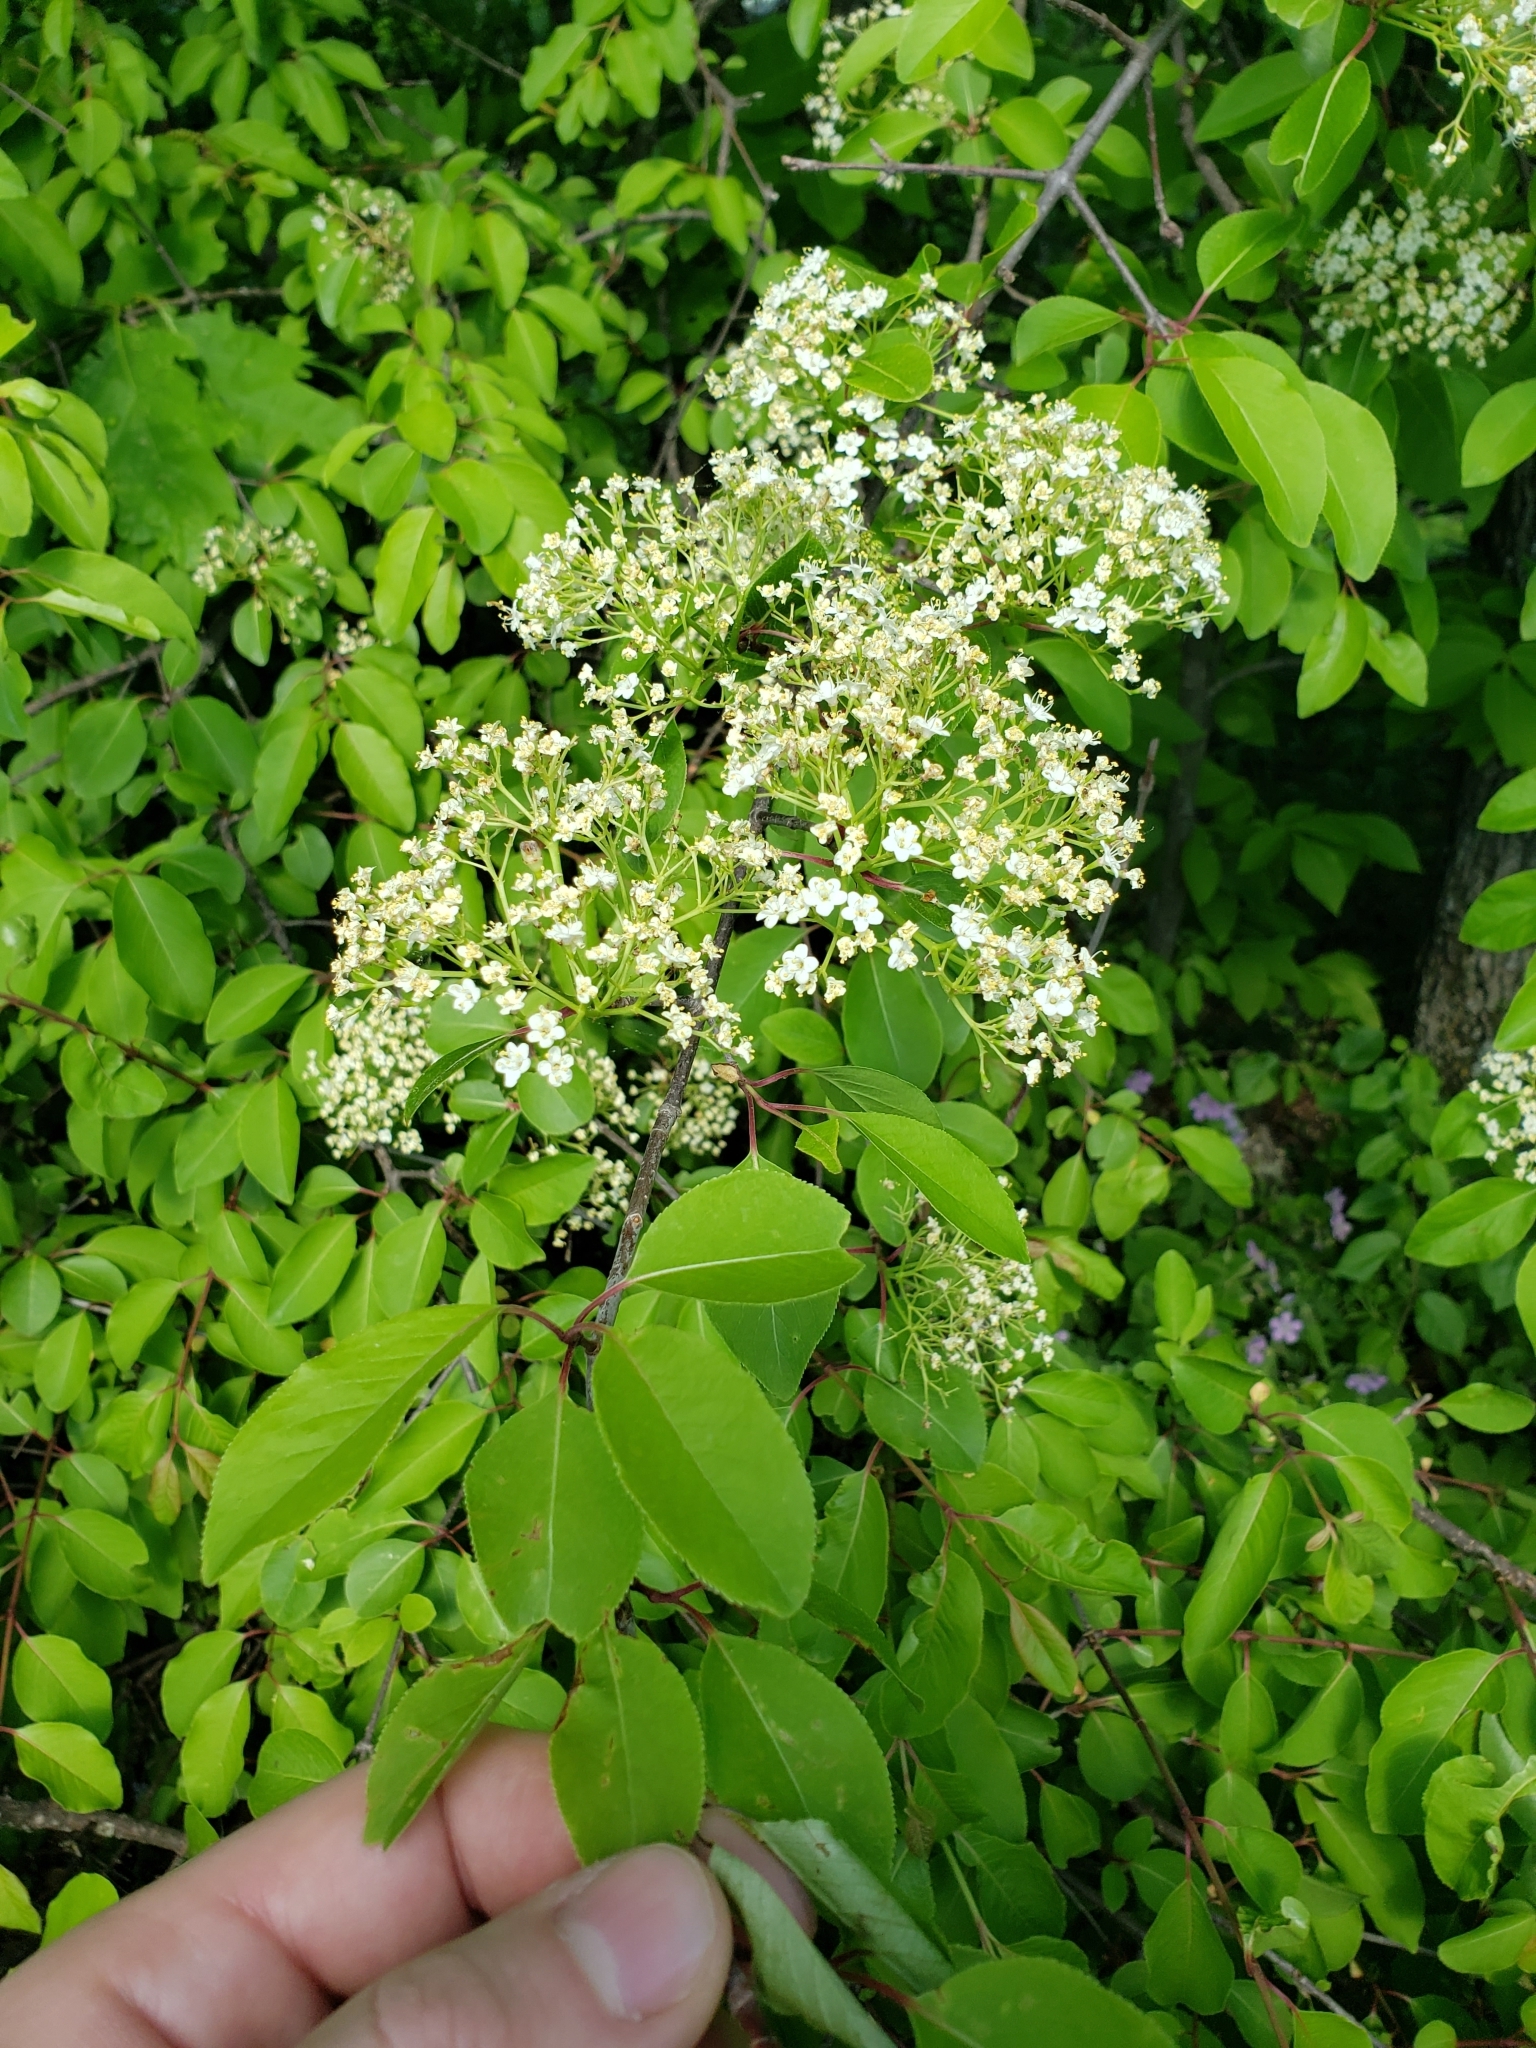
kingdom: Plantae
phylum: Tracheophyta
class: Magnoliopsida
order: Dipsacales
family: Viburnaceae
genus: Viburnum
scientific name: Viburnum prunifolium
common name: Black haw
